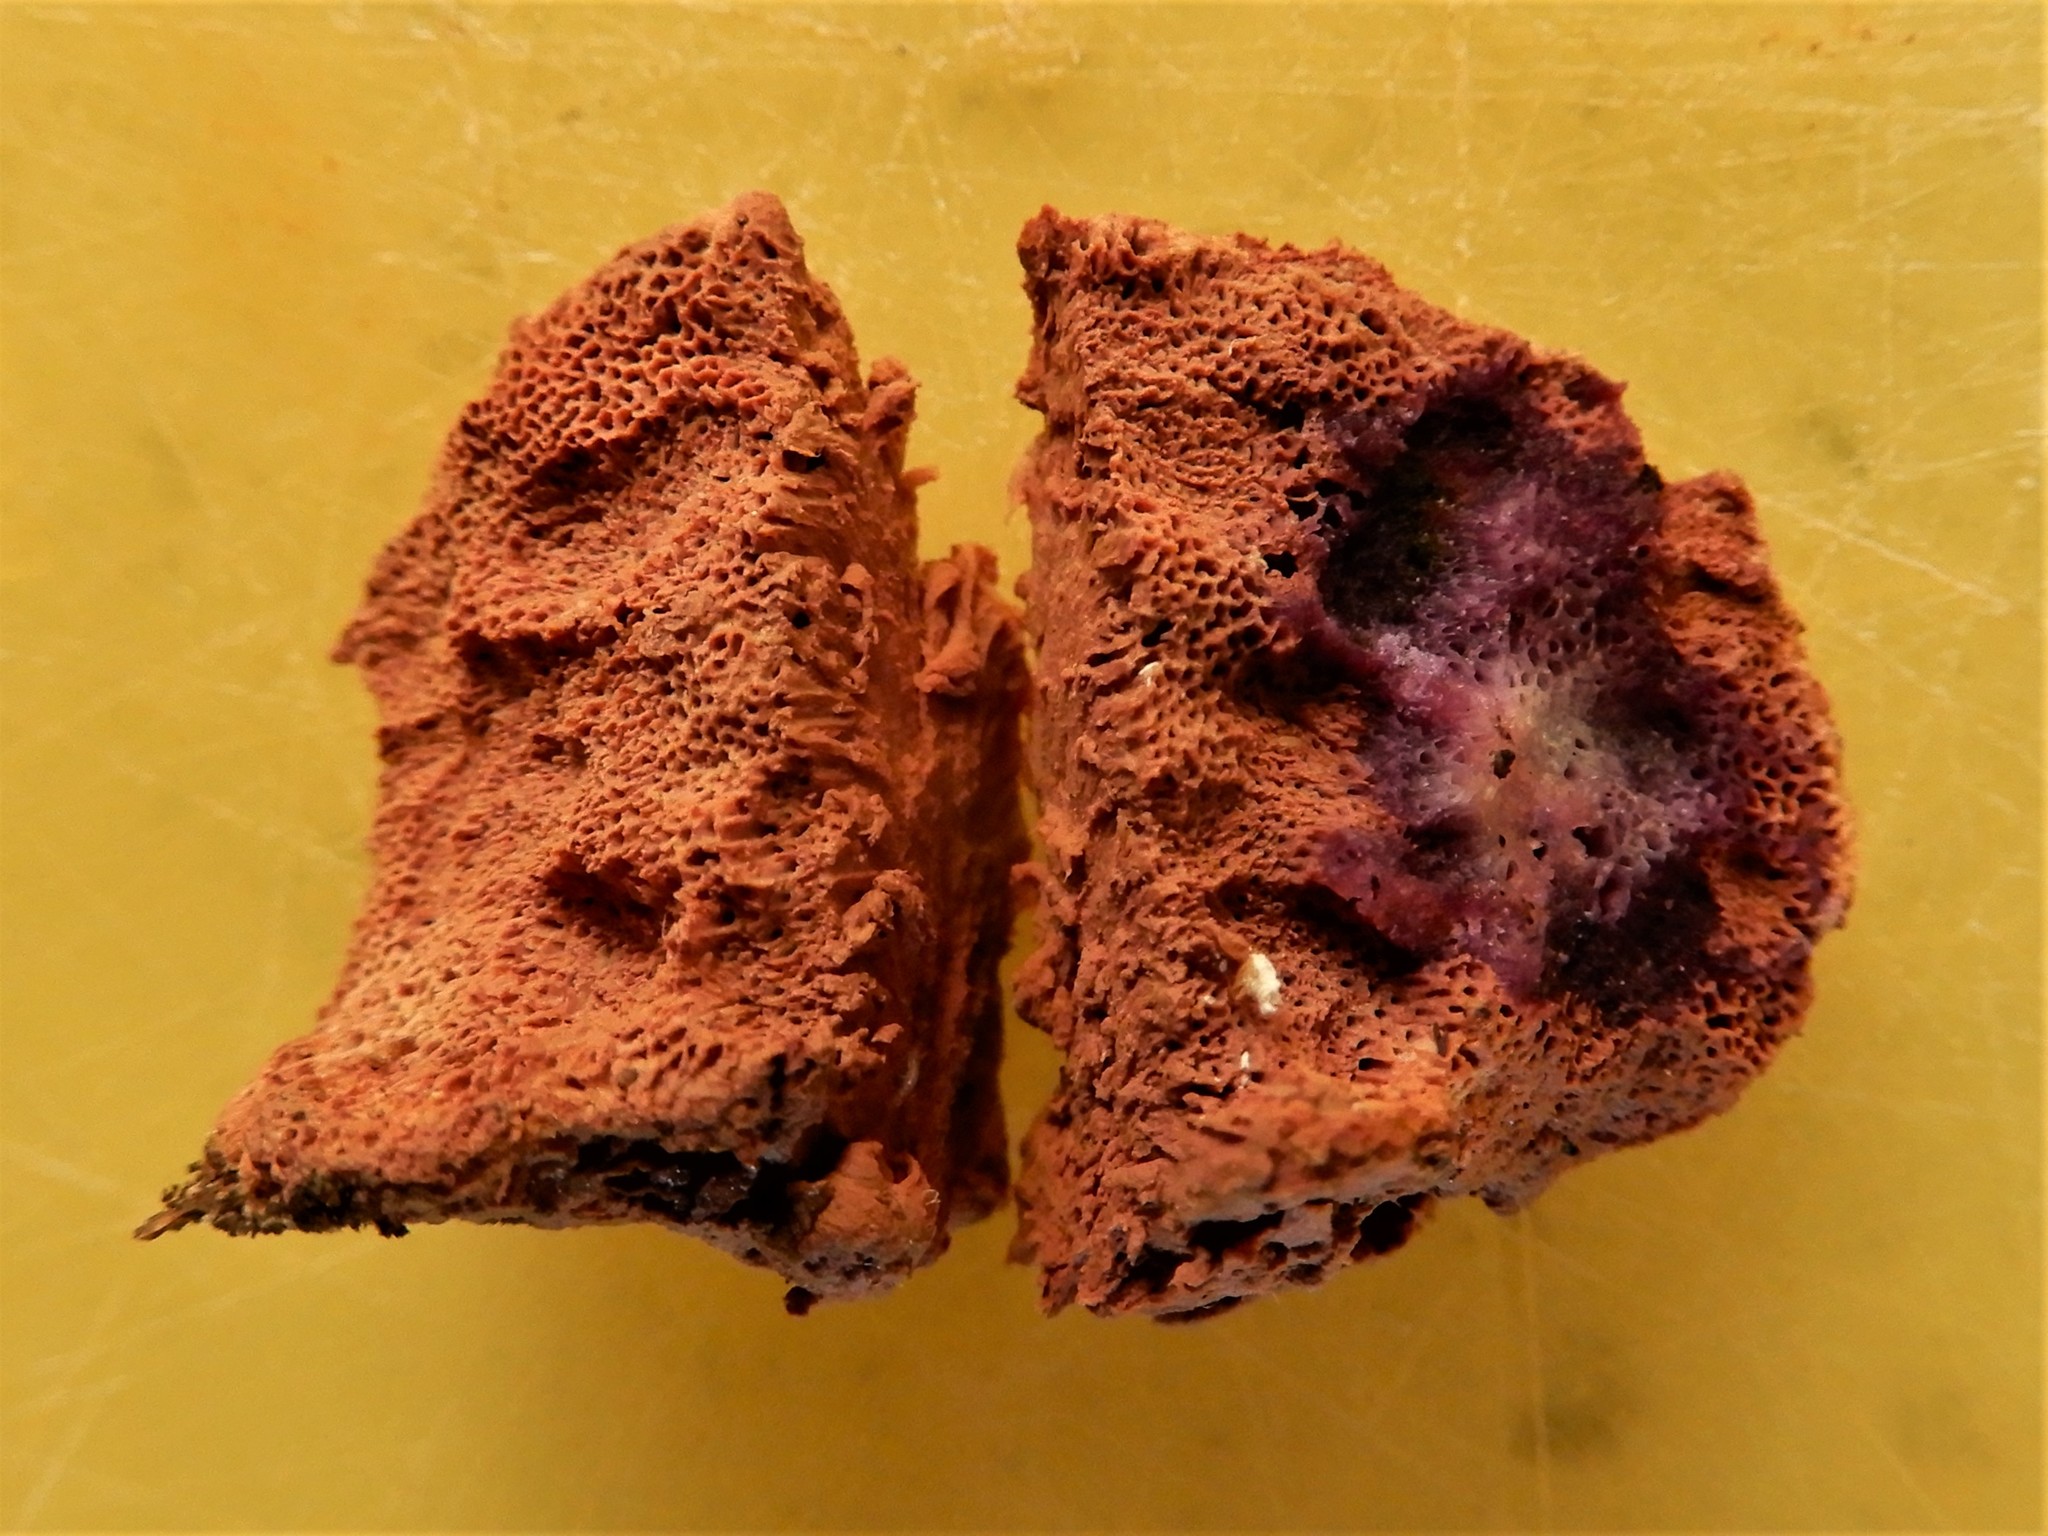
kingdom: Fungi
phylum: Basidiomycota
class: Agaricomycetes
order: Polyporales
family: Phanerochaetaceae
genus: Hapalopilus
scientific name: Hapalopilus rutilans
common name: Tender nesting polypore
